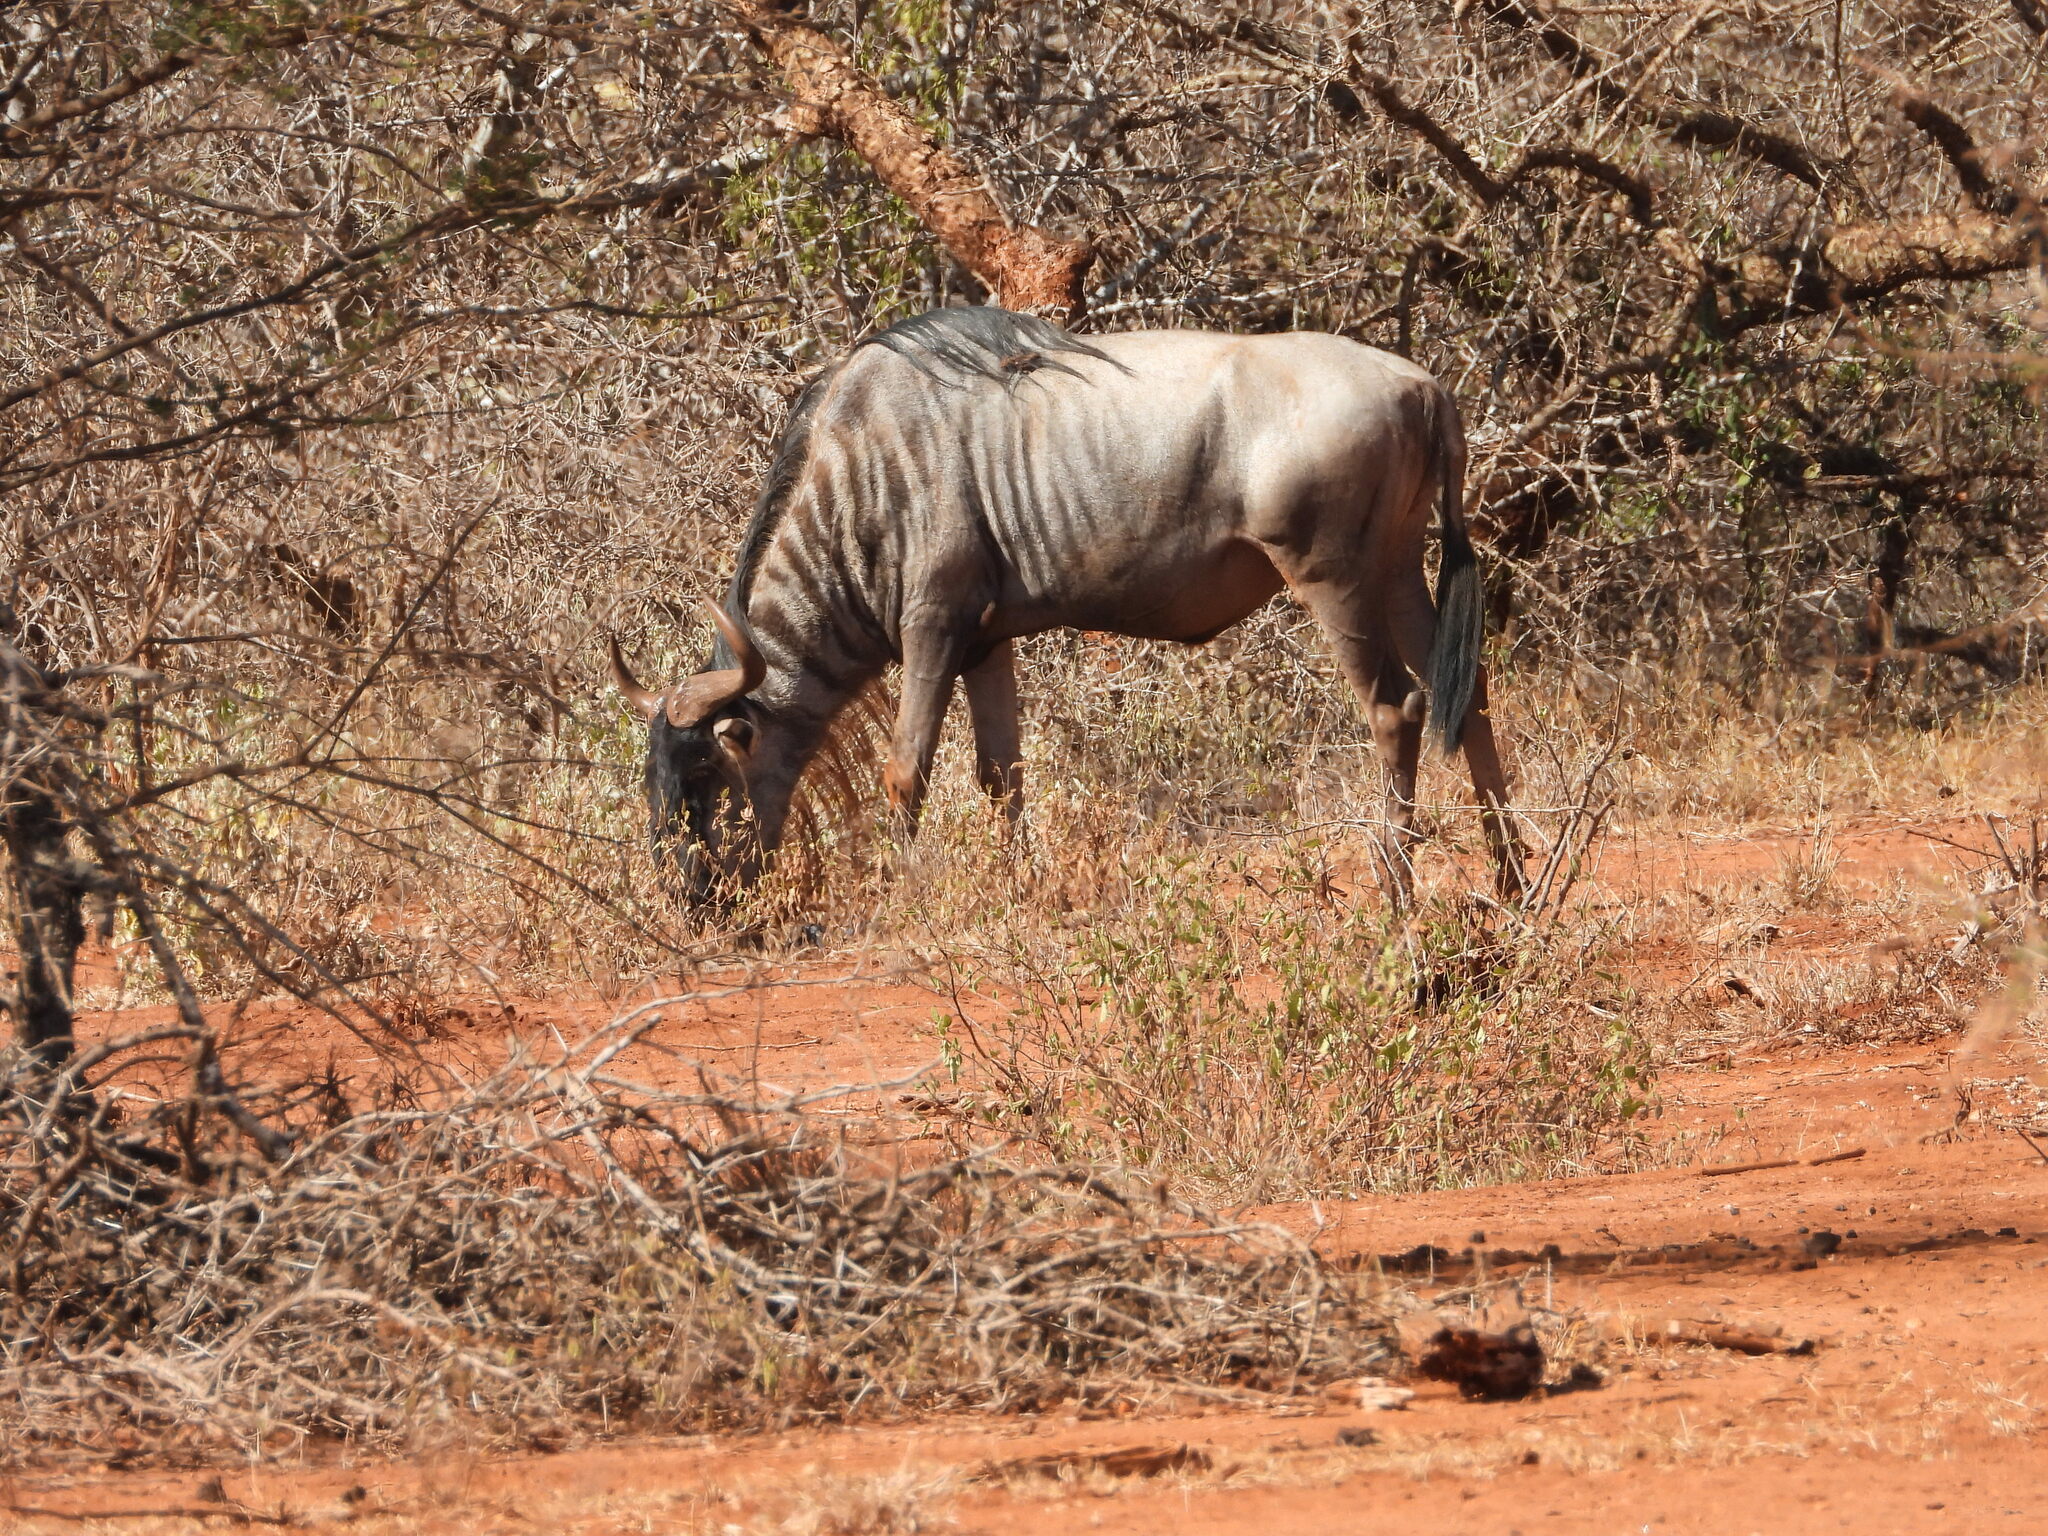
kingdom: Animalia
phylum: Chordata
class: Mammalia
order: Artiodactyla
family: Bovidae
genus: Connochaetes
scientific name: Connochaetes taurinus
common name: Blue wildebeest
